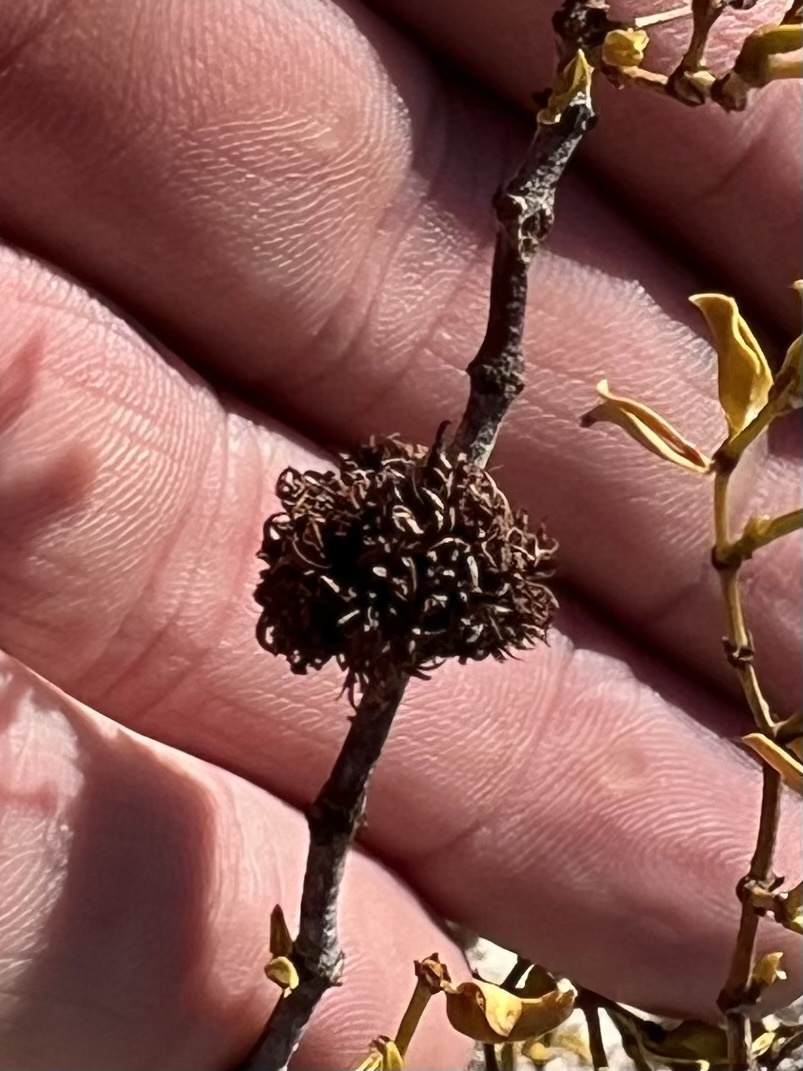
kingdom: Animalia
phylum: Arthropoda
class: Insecta
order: Diptera
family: Cecidomyiidae
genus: Asphondylia
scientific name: Asphondylia auripila
